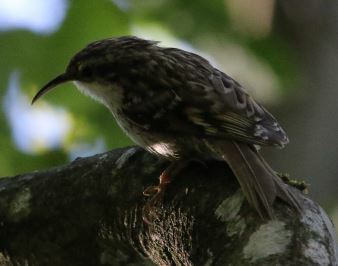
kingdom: Animalia
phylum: Chordata
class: Aves
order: Passeriformes
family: Certhiidae
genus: Certhia
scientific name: Certhia brachydactyla
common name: Short-toed treecreeper
